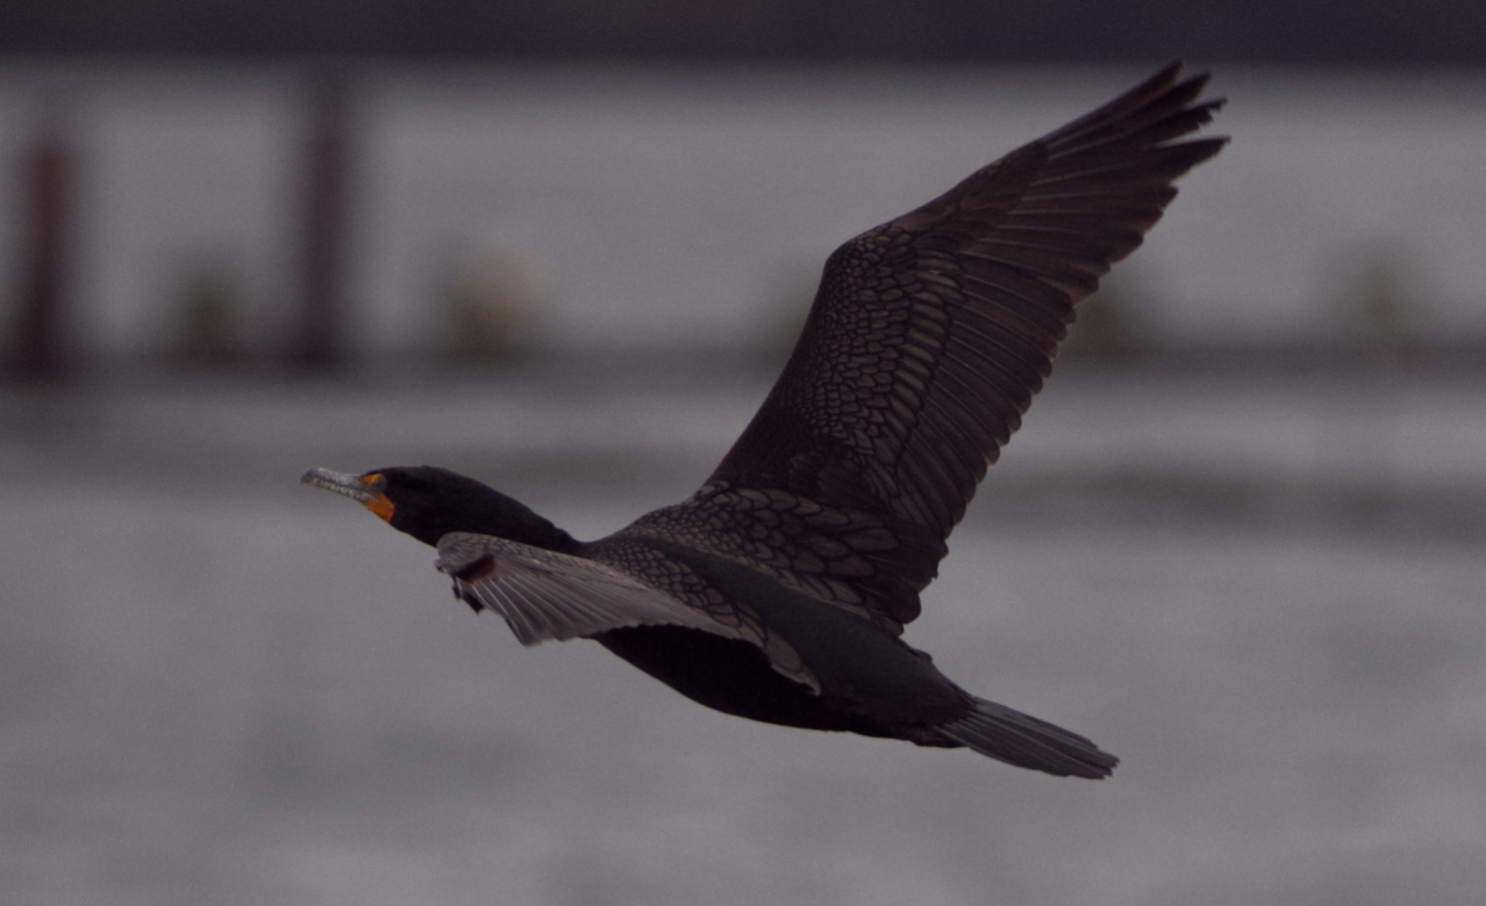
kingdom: Animalia
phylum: Chordata
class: Aves
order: Suliformes
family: Phalacrocoracidae
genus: Phalacrocorax
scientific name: Phalacrocorax auritus
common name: Double-crested cormorant
